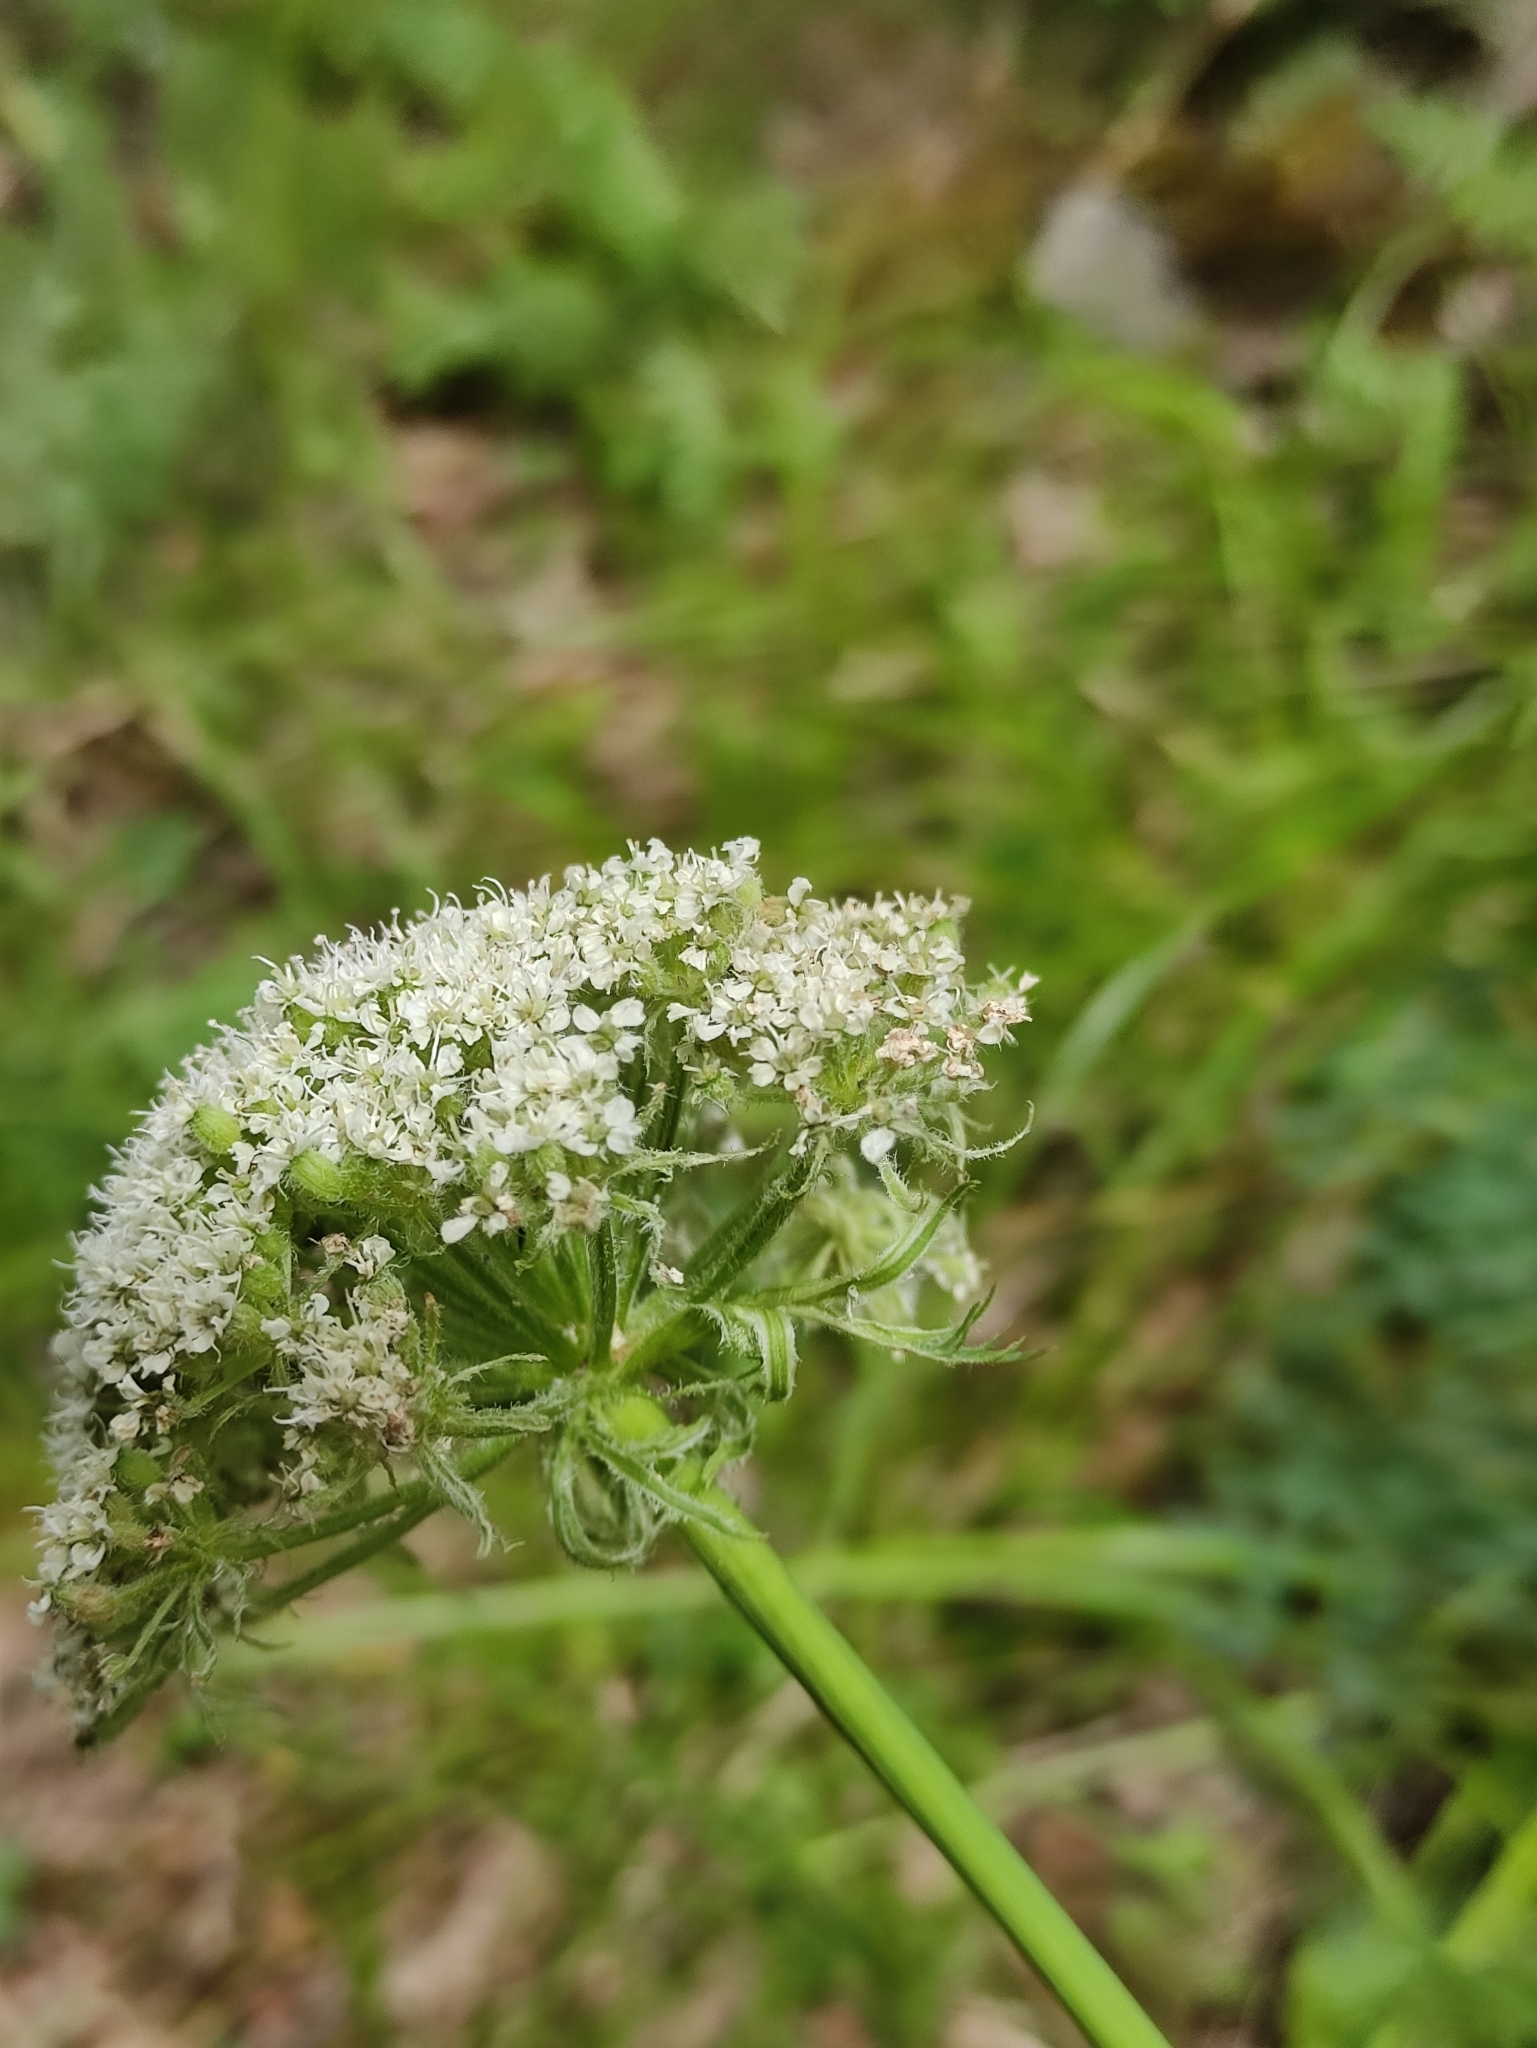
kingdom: Plantae
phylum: Tracheophyta
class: Magnoliopsida
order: Apiales
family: Apiaceae
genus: Phlojodicarpus
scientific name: Phlojodicarpus villosus
